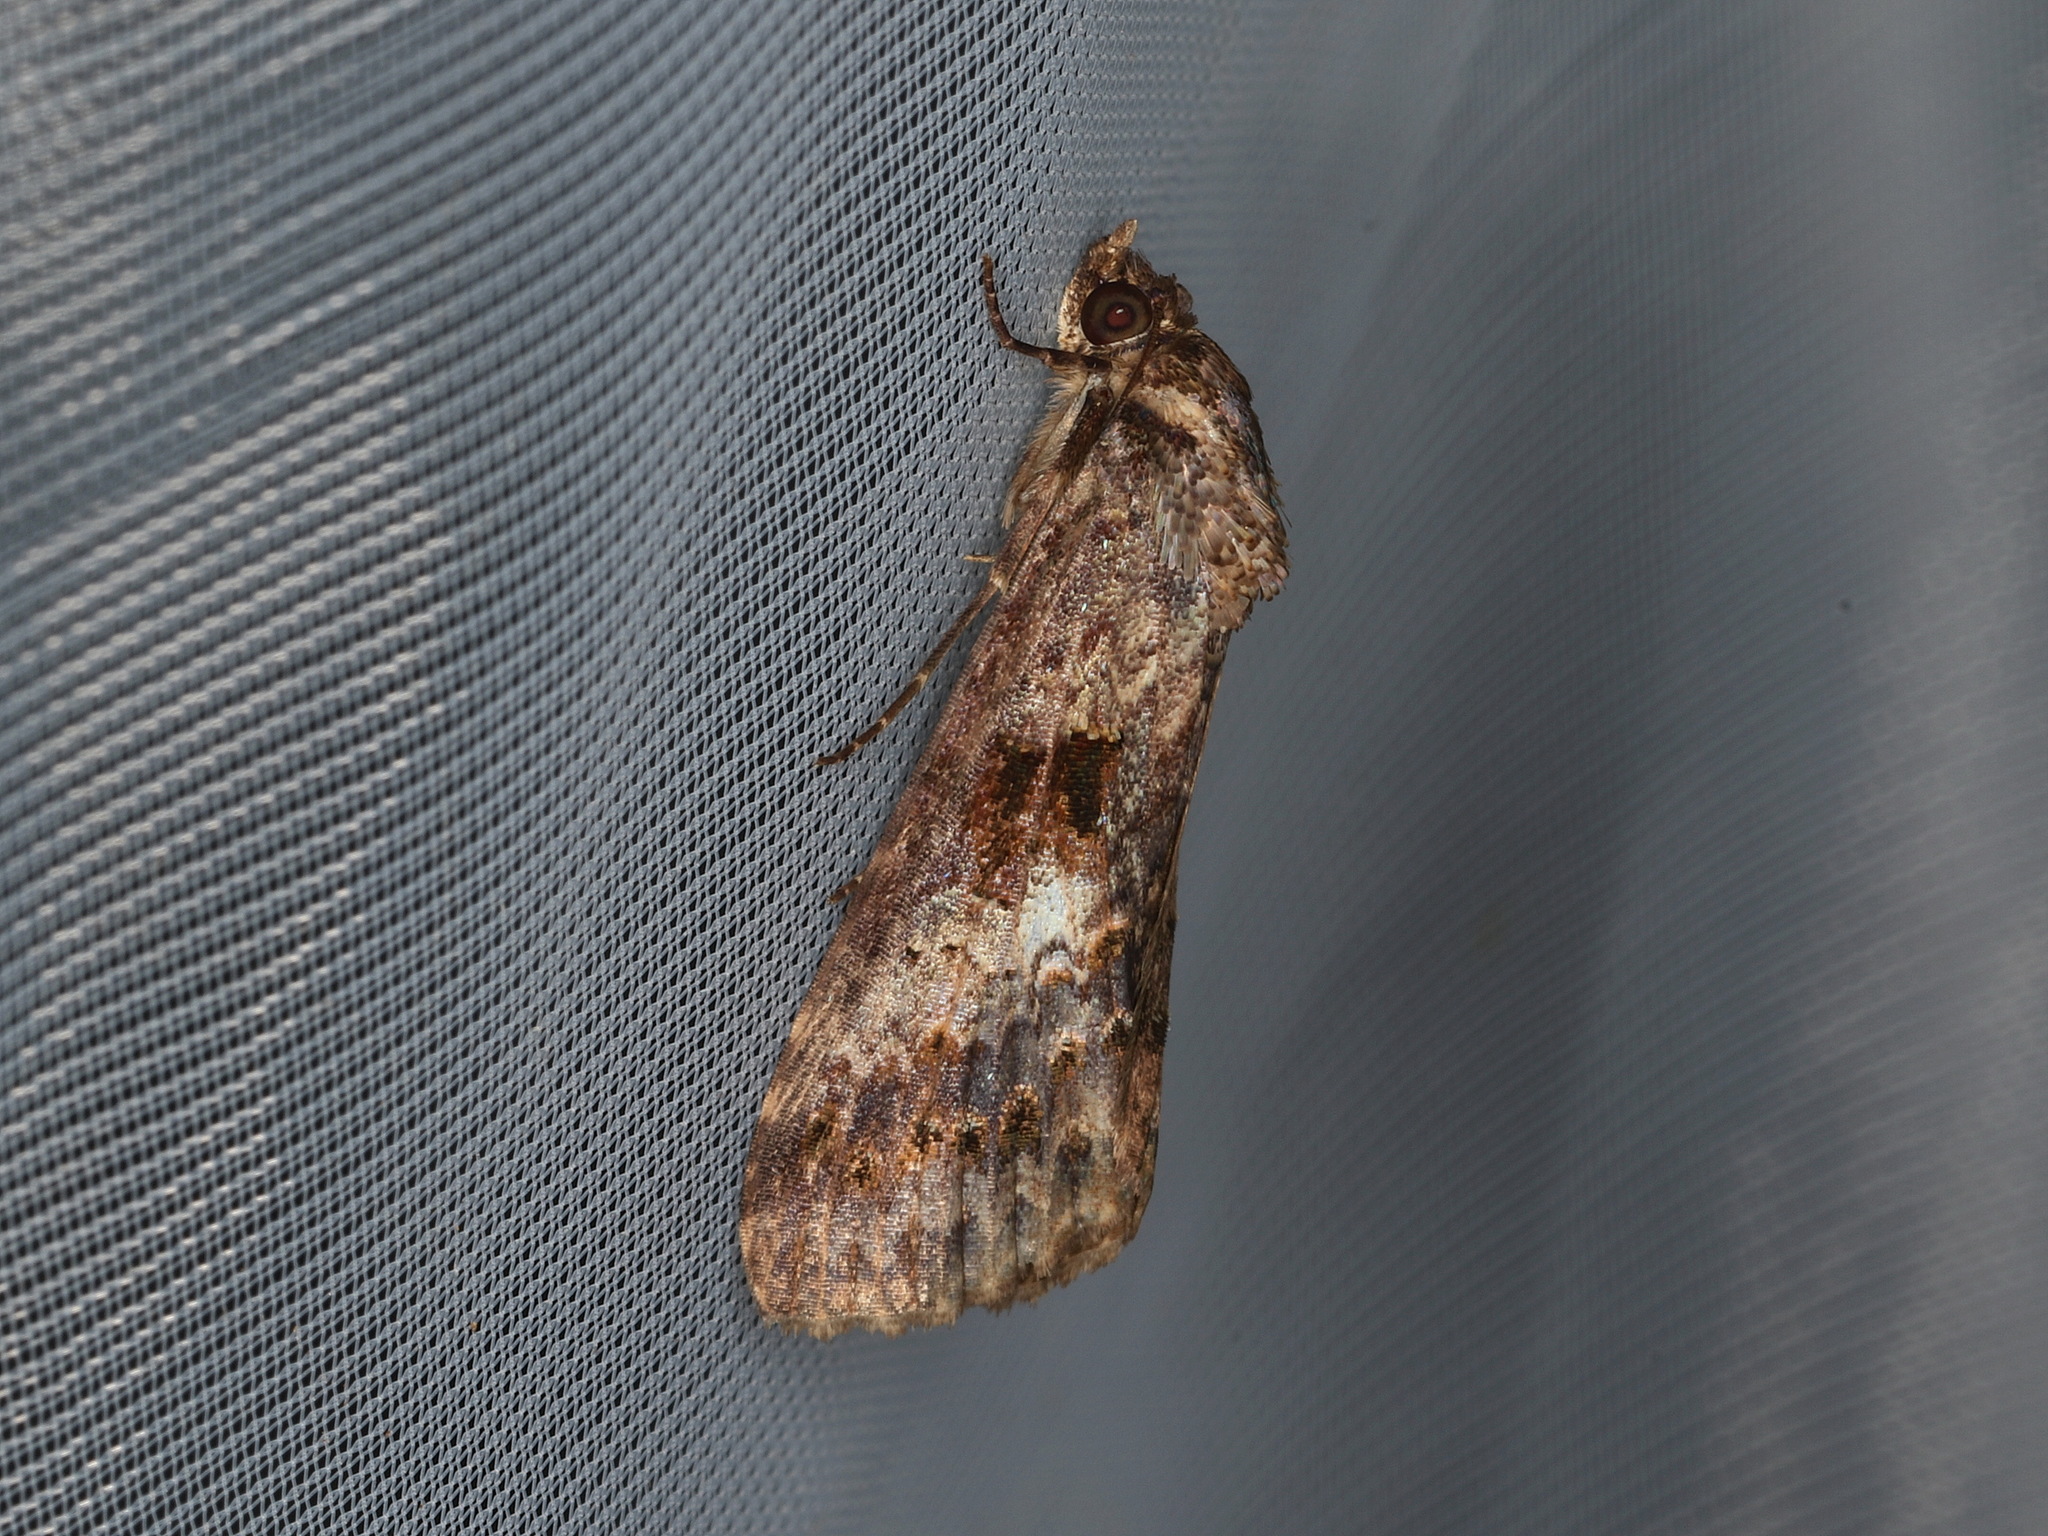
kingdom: Animalia
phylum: Arthropoda
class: Insecta
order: Lepidoptera
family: Euteliidae
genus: Lophoptera
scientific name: Lophoptera abbreviata
